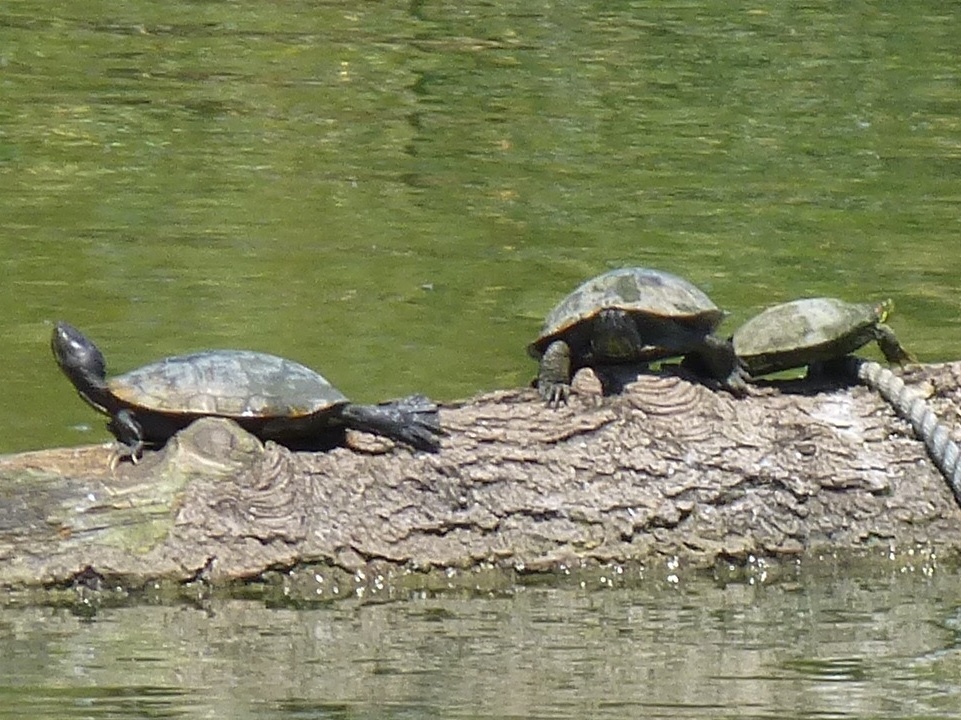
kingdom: Animalia
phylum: Chordata
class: Testudines
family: Emydidae
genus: Trachemys
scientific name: Trachemys scripta
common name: Slider
